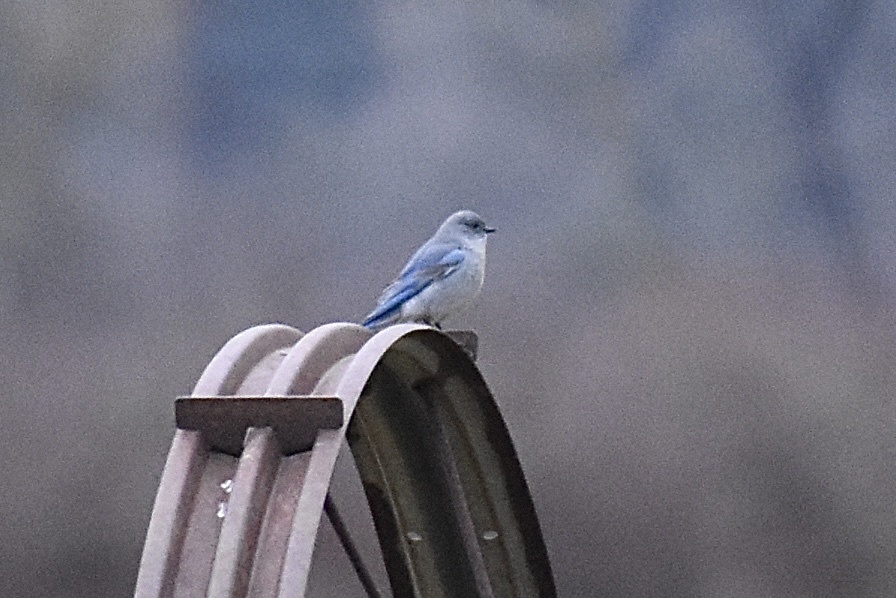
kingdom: Animalia
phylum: Chordata
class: Aves
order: Passeriformes
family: Turdidae
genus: Sialia
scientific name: Sialia currucoides
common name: Mountain bluebird
